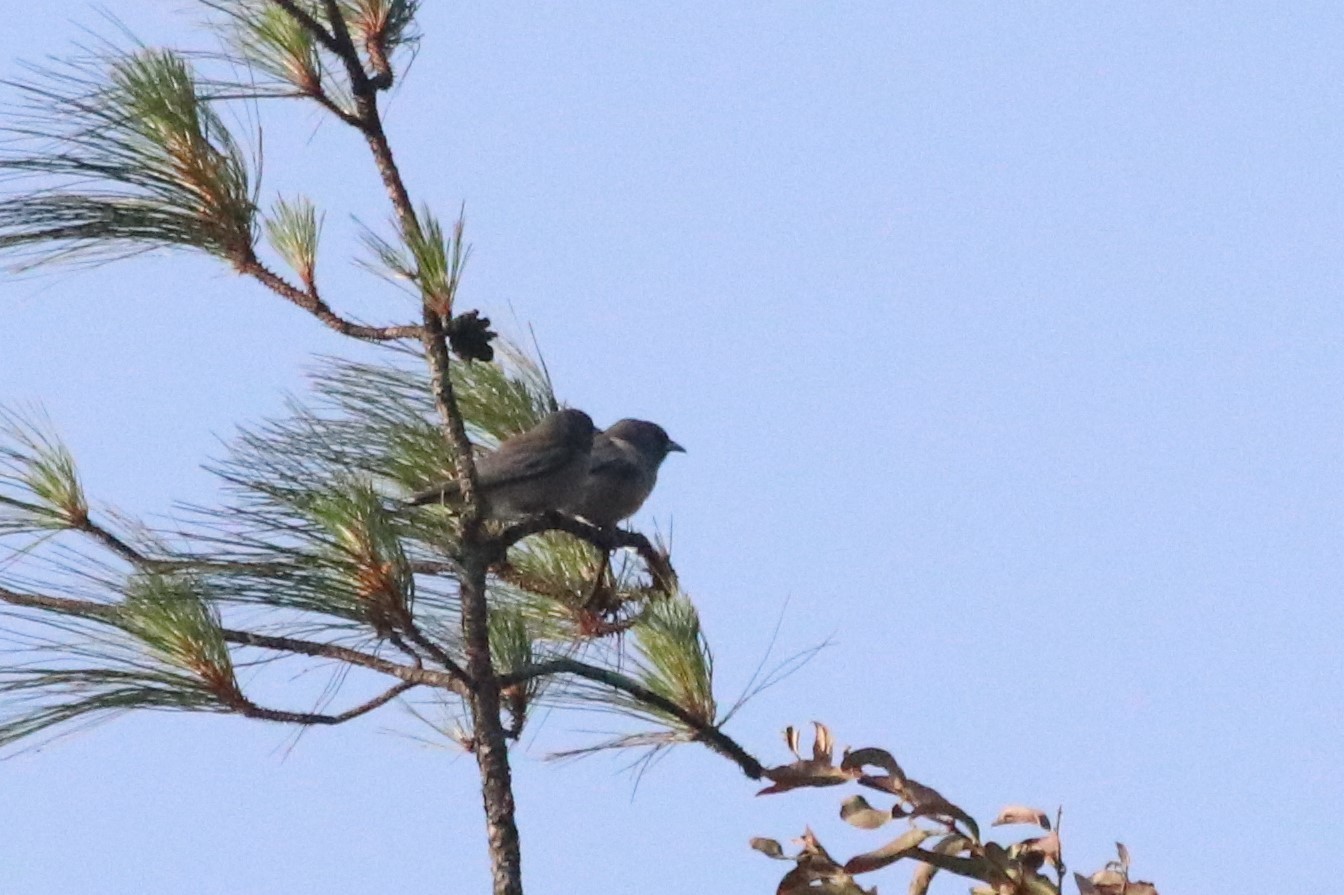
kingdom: Animalia
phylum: Chordata
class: Aves
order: Passeriformes
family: Artamidae
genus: Artamus
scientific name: Artamus fuscus
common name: Ashy woodswallow
